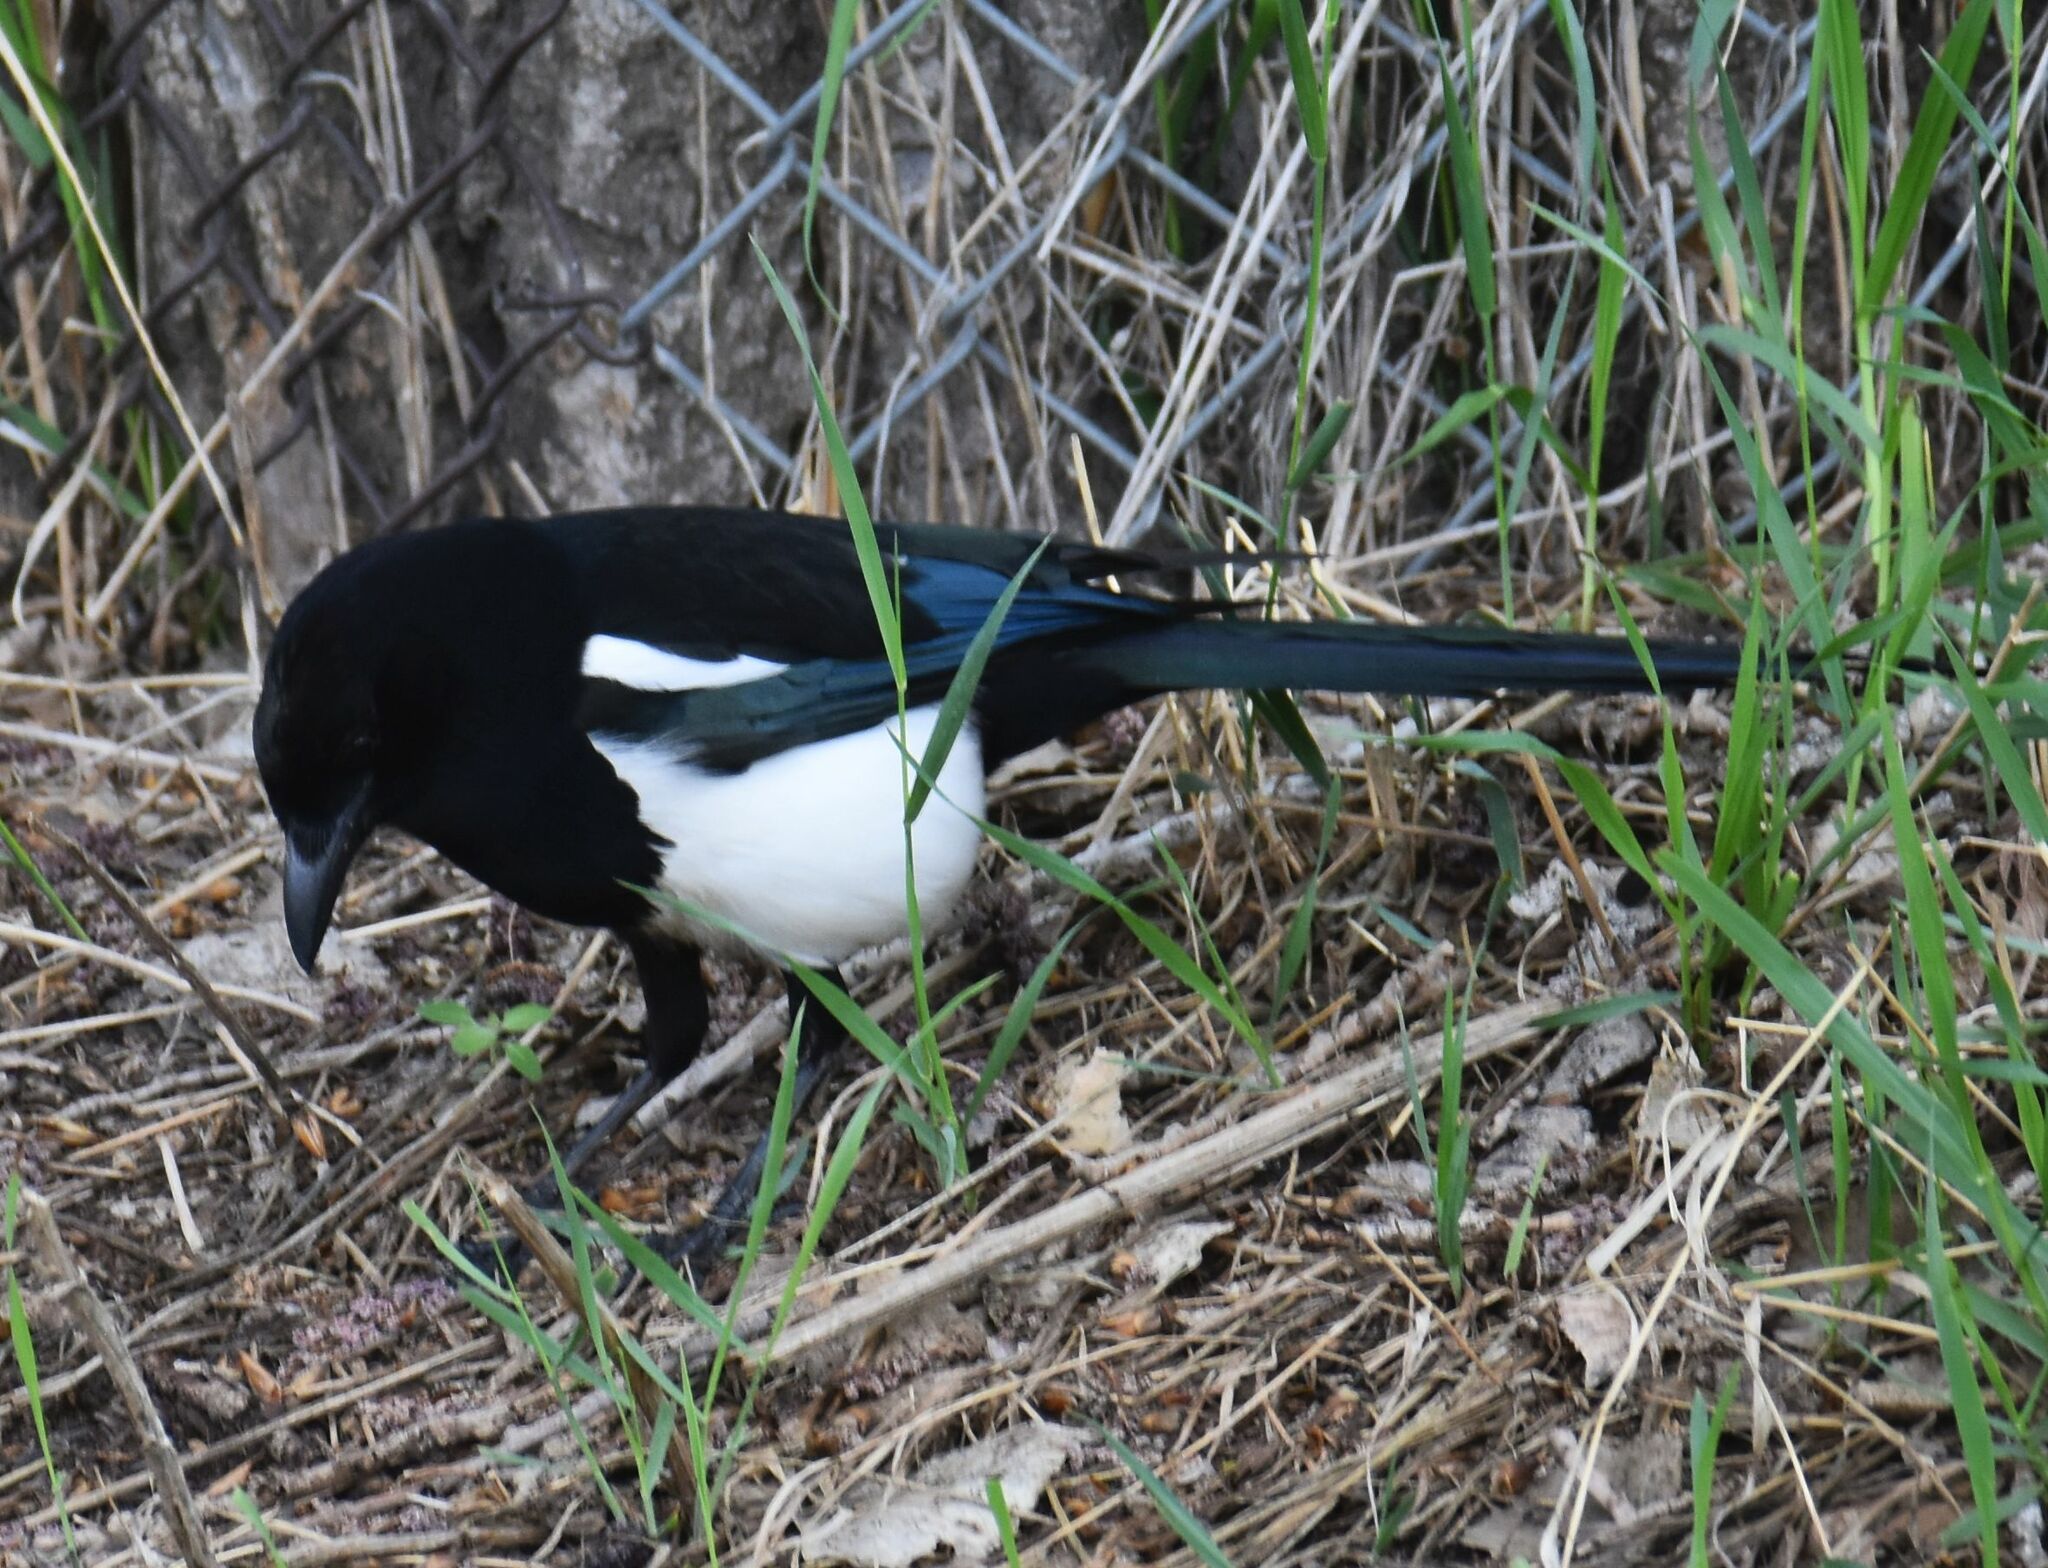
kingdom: Animalia
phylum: Chordata
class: Aves
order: Passeriformes
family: Corvidae
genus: Pica
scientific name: Pica hudsonia
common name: Black-billed magpie
